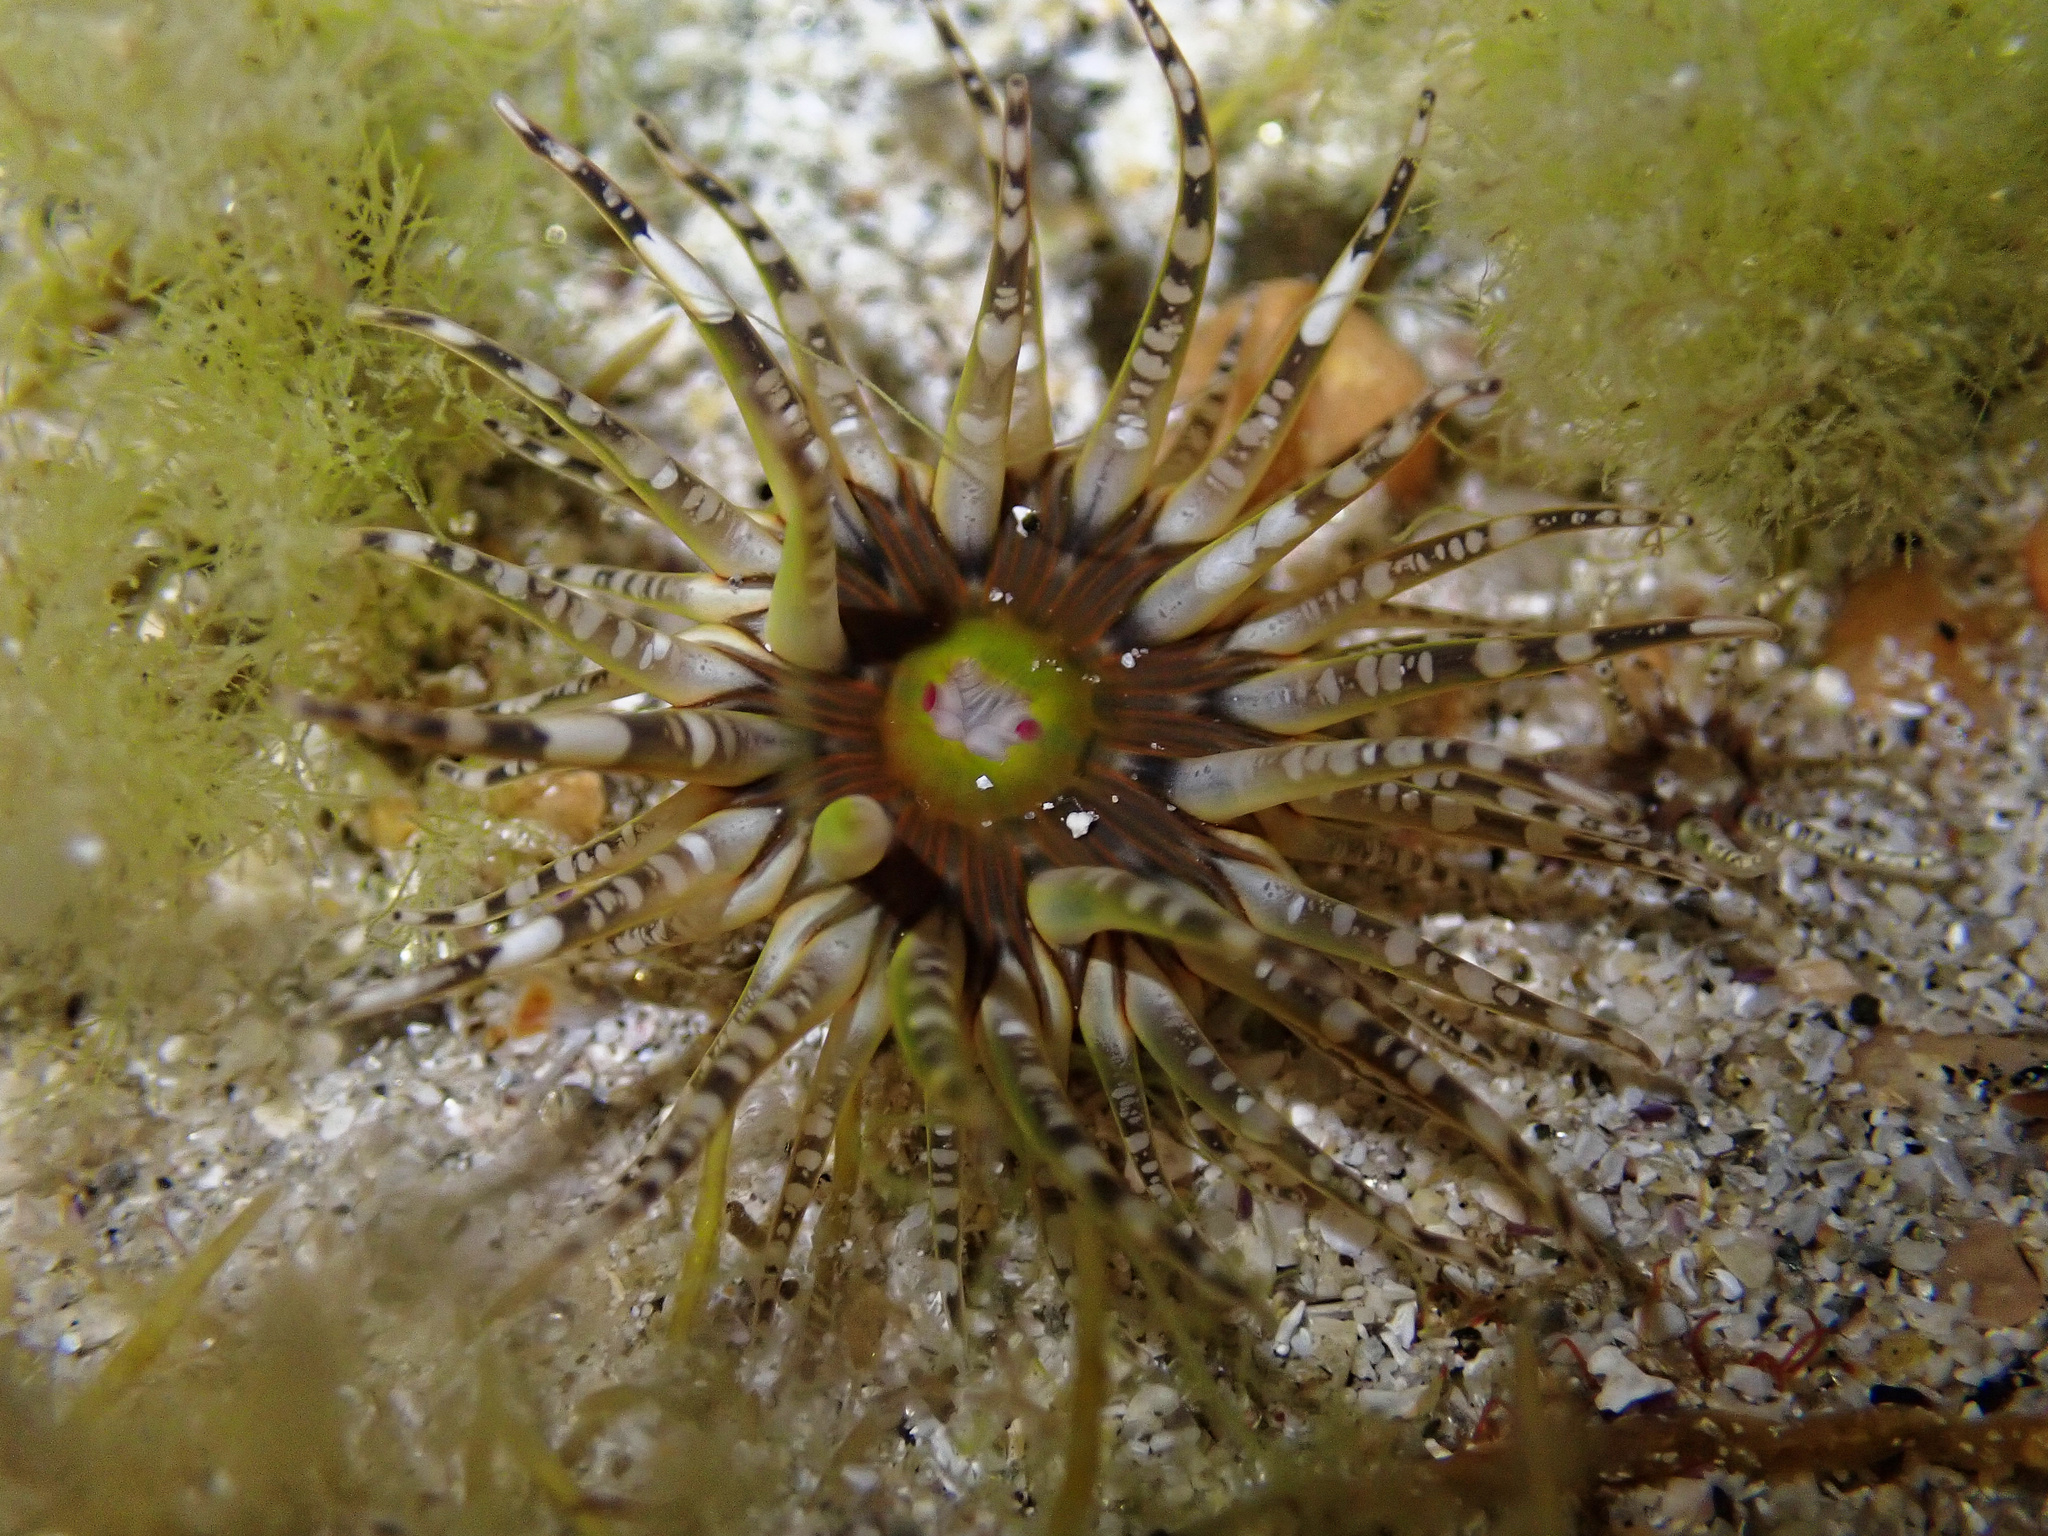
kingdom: Animalia
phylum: Cnidaria
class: Anthozoa
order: Actiniaria
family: Actiniidae
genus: Bunodactis
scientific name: Bunodactis verrucosa
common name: Gem anemone
